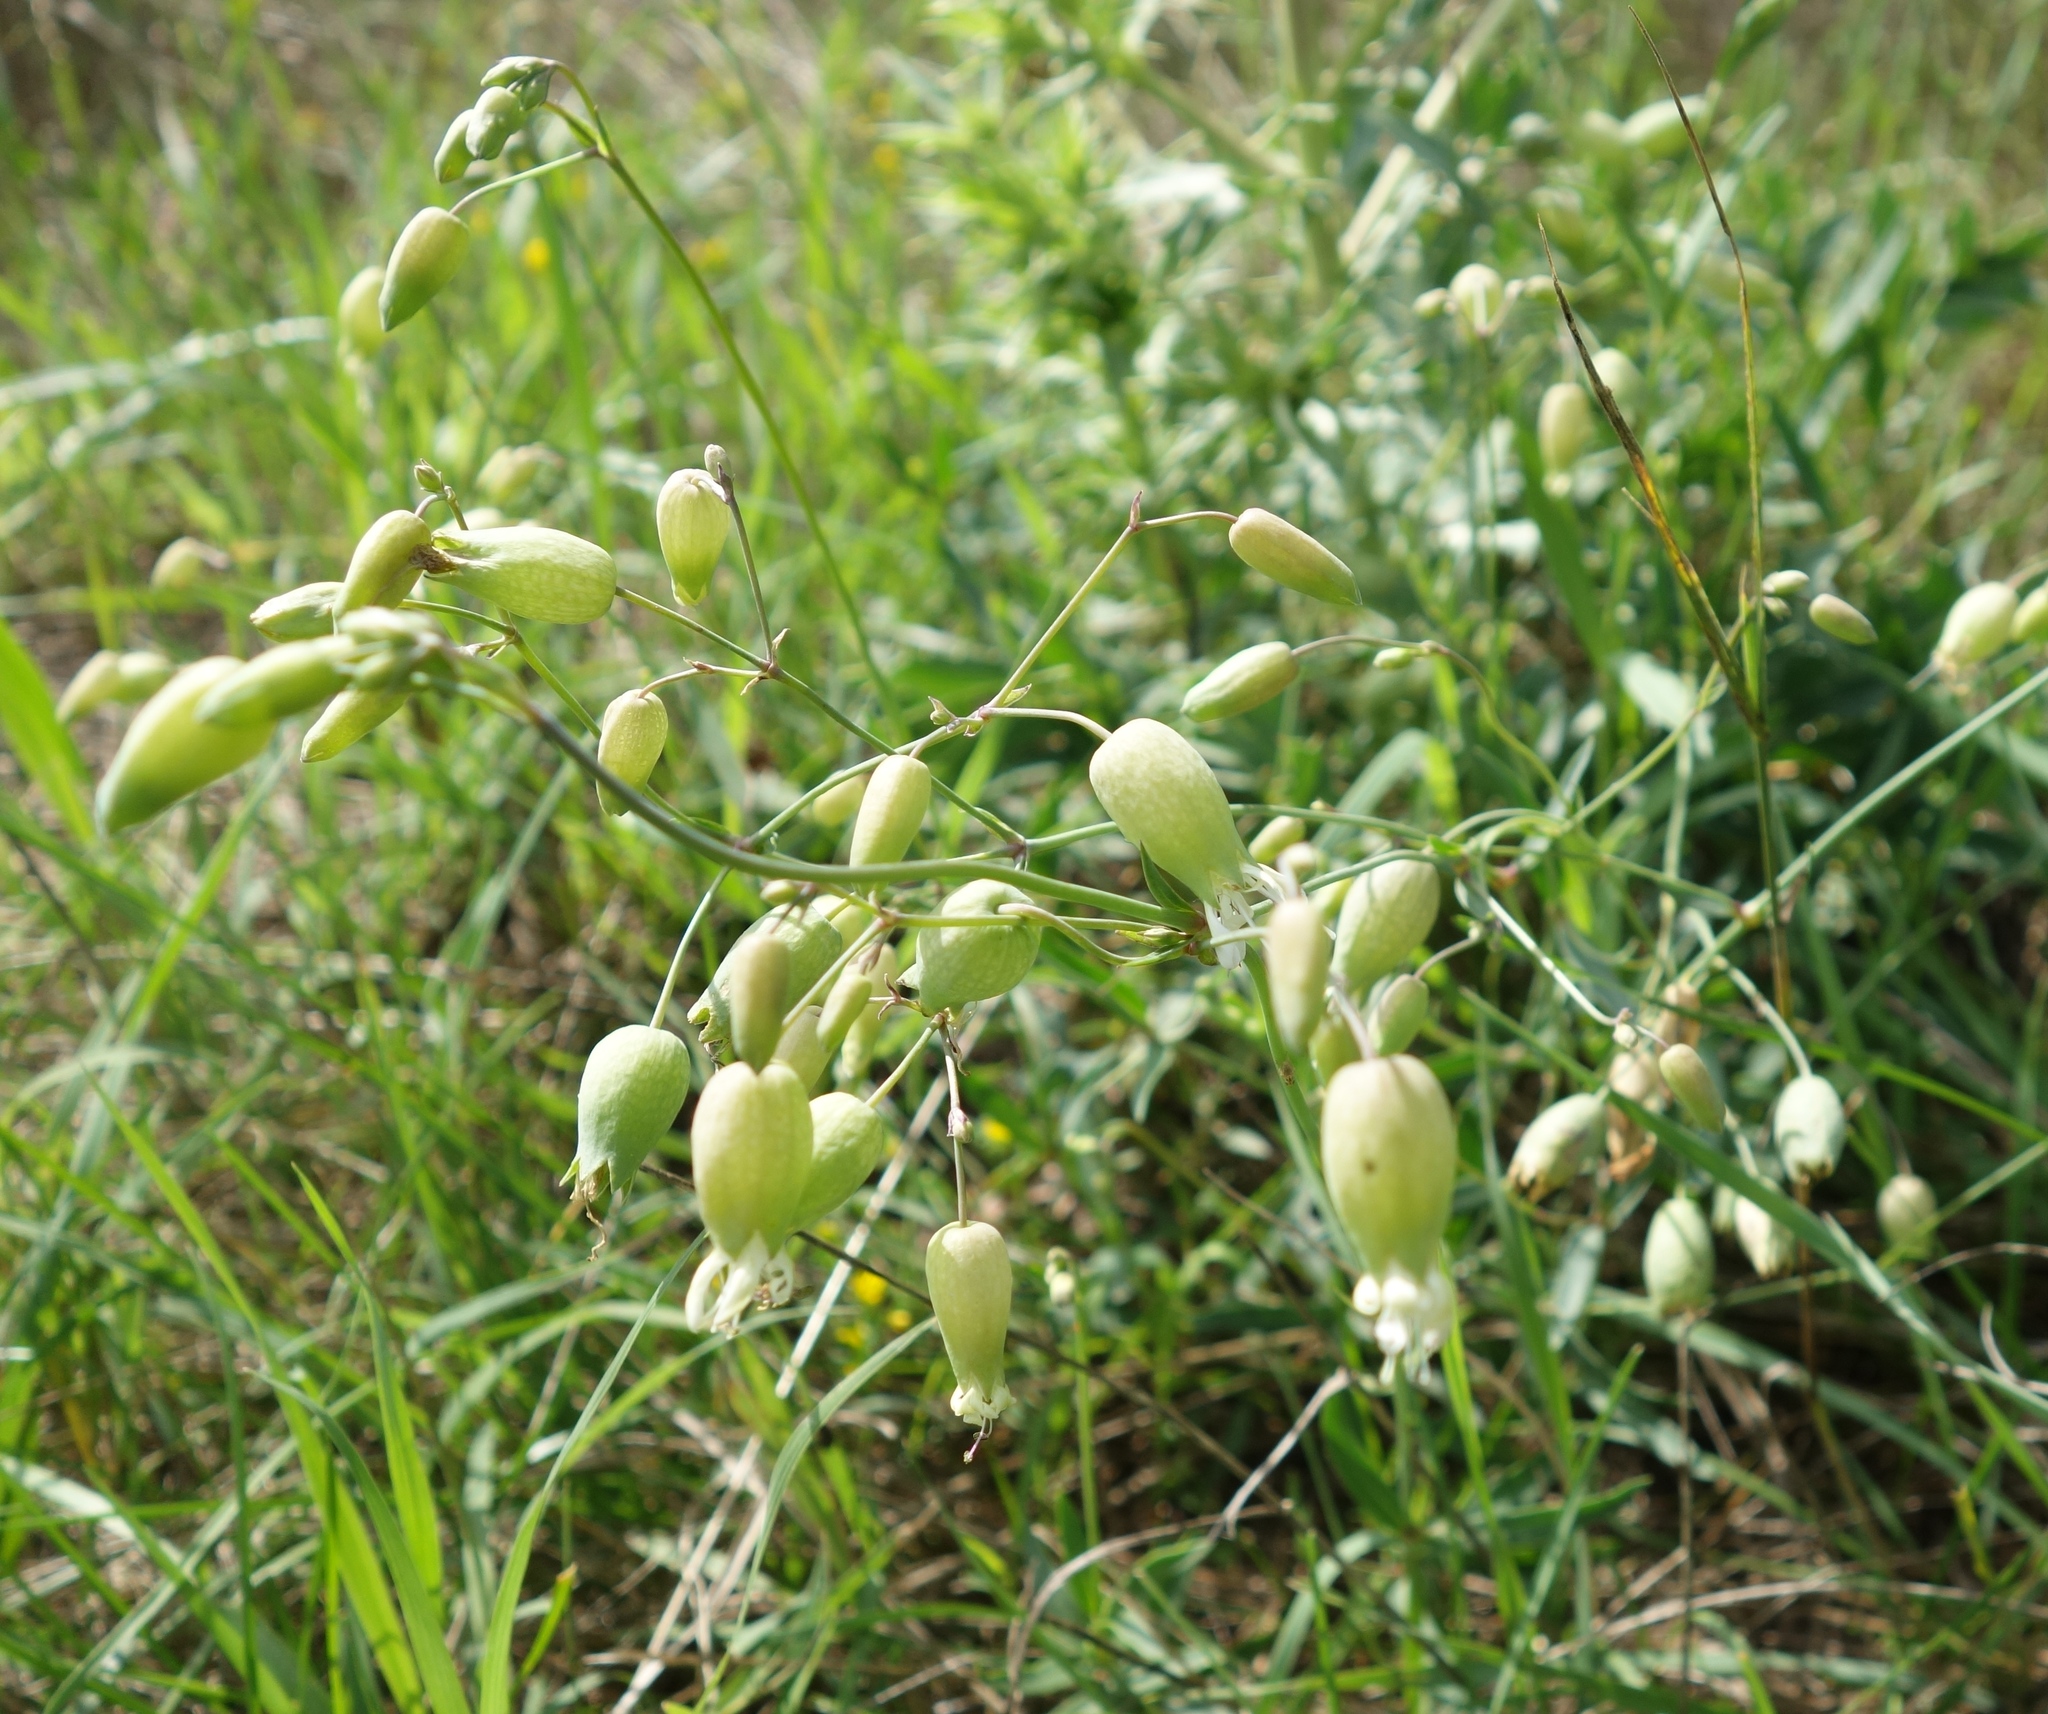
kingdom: Plantae
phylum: Tracheophyta
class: Magnoliopsida
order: Caryophyllales
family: Caryophyllaceae
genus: Silene
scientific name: Silene vulgaris
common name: Bladder campion
